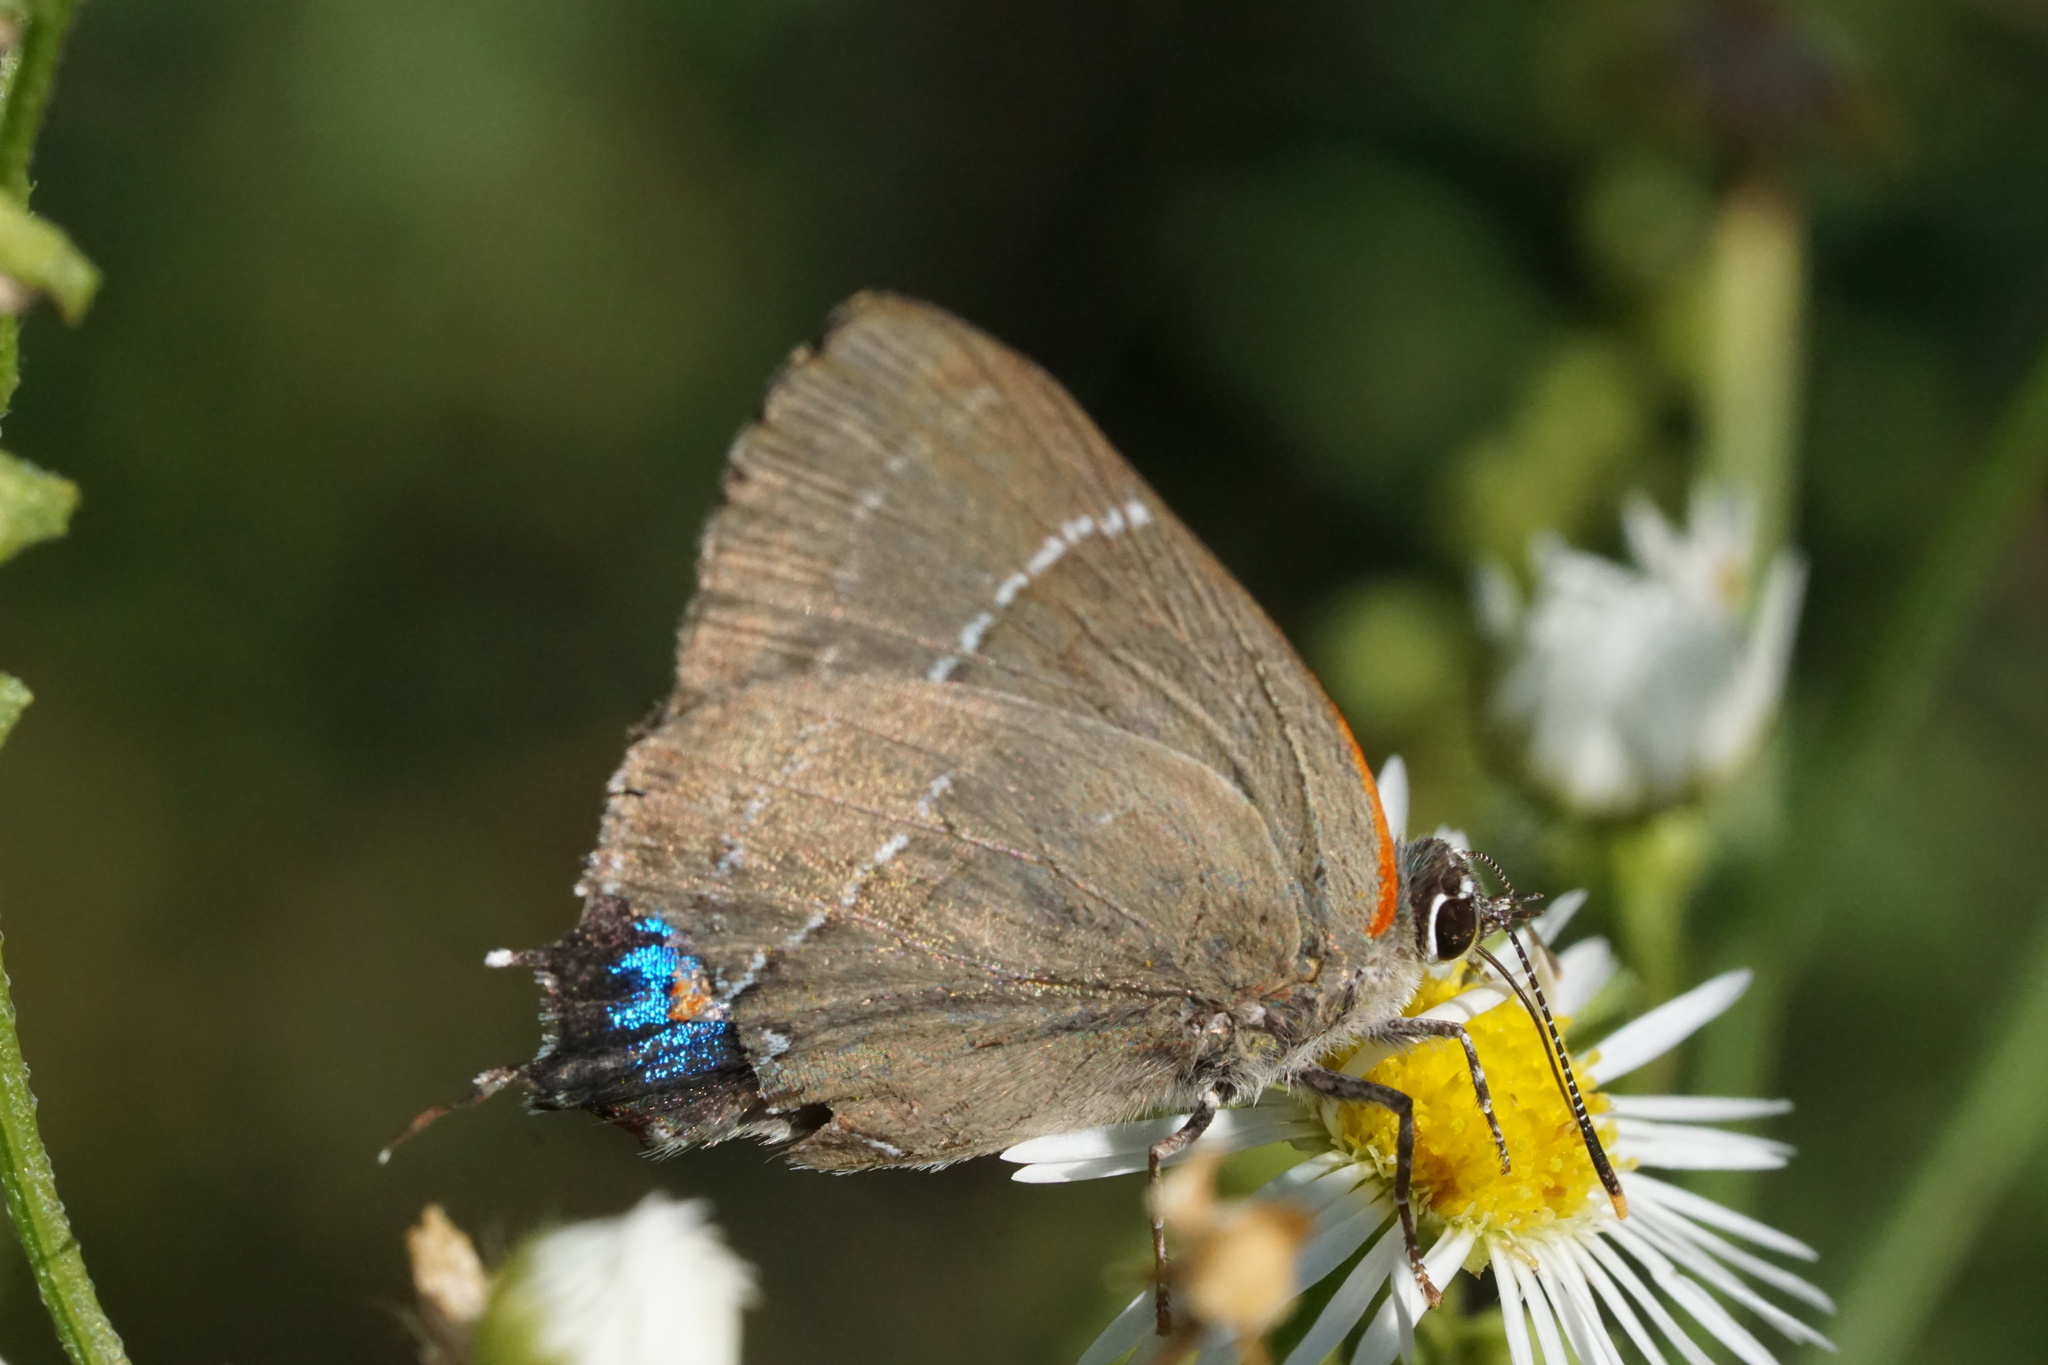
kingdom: Animalia
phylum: Arthropoda
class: Insecta
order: Lepidoptera
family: Lycaenidae
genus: Parrhasius
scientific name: Parrhasius m-album
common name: White m hairstreak
